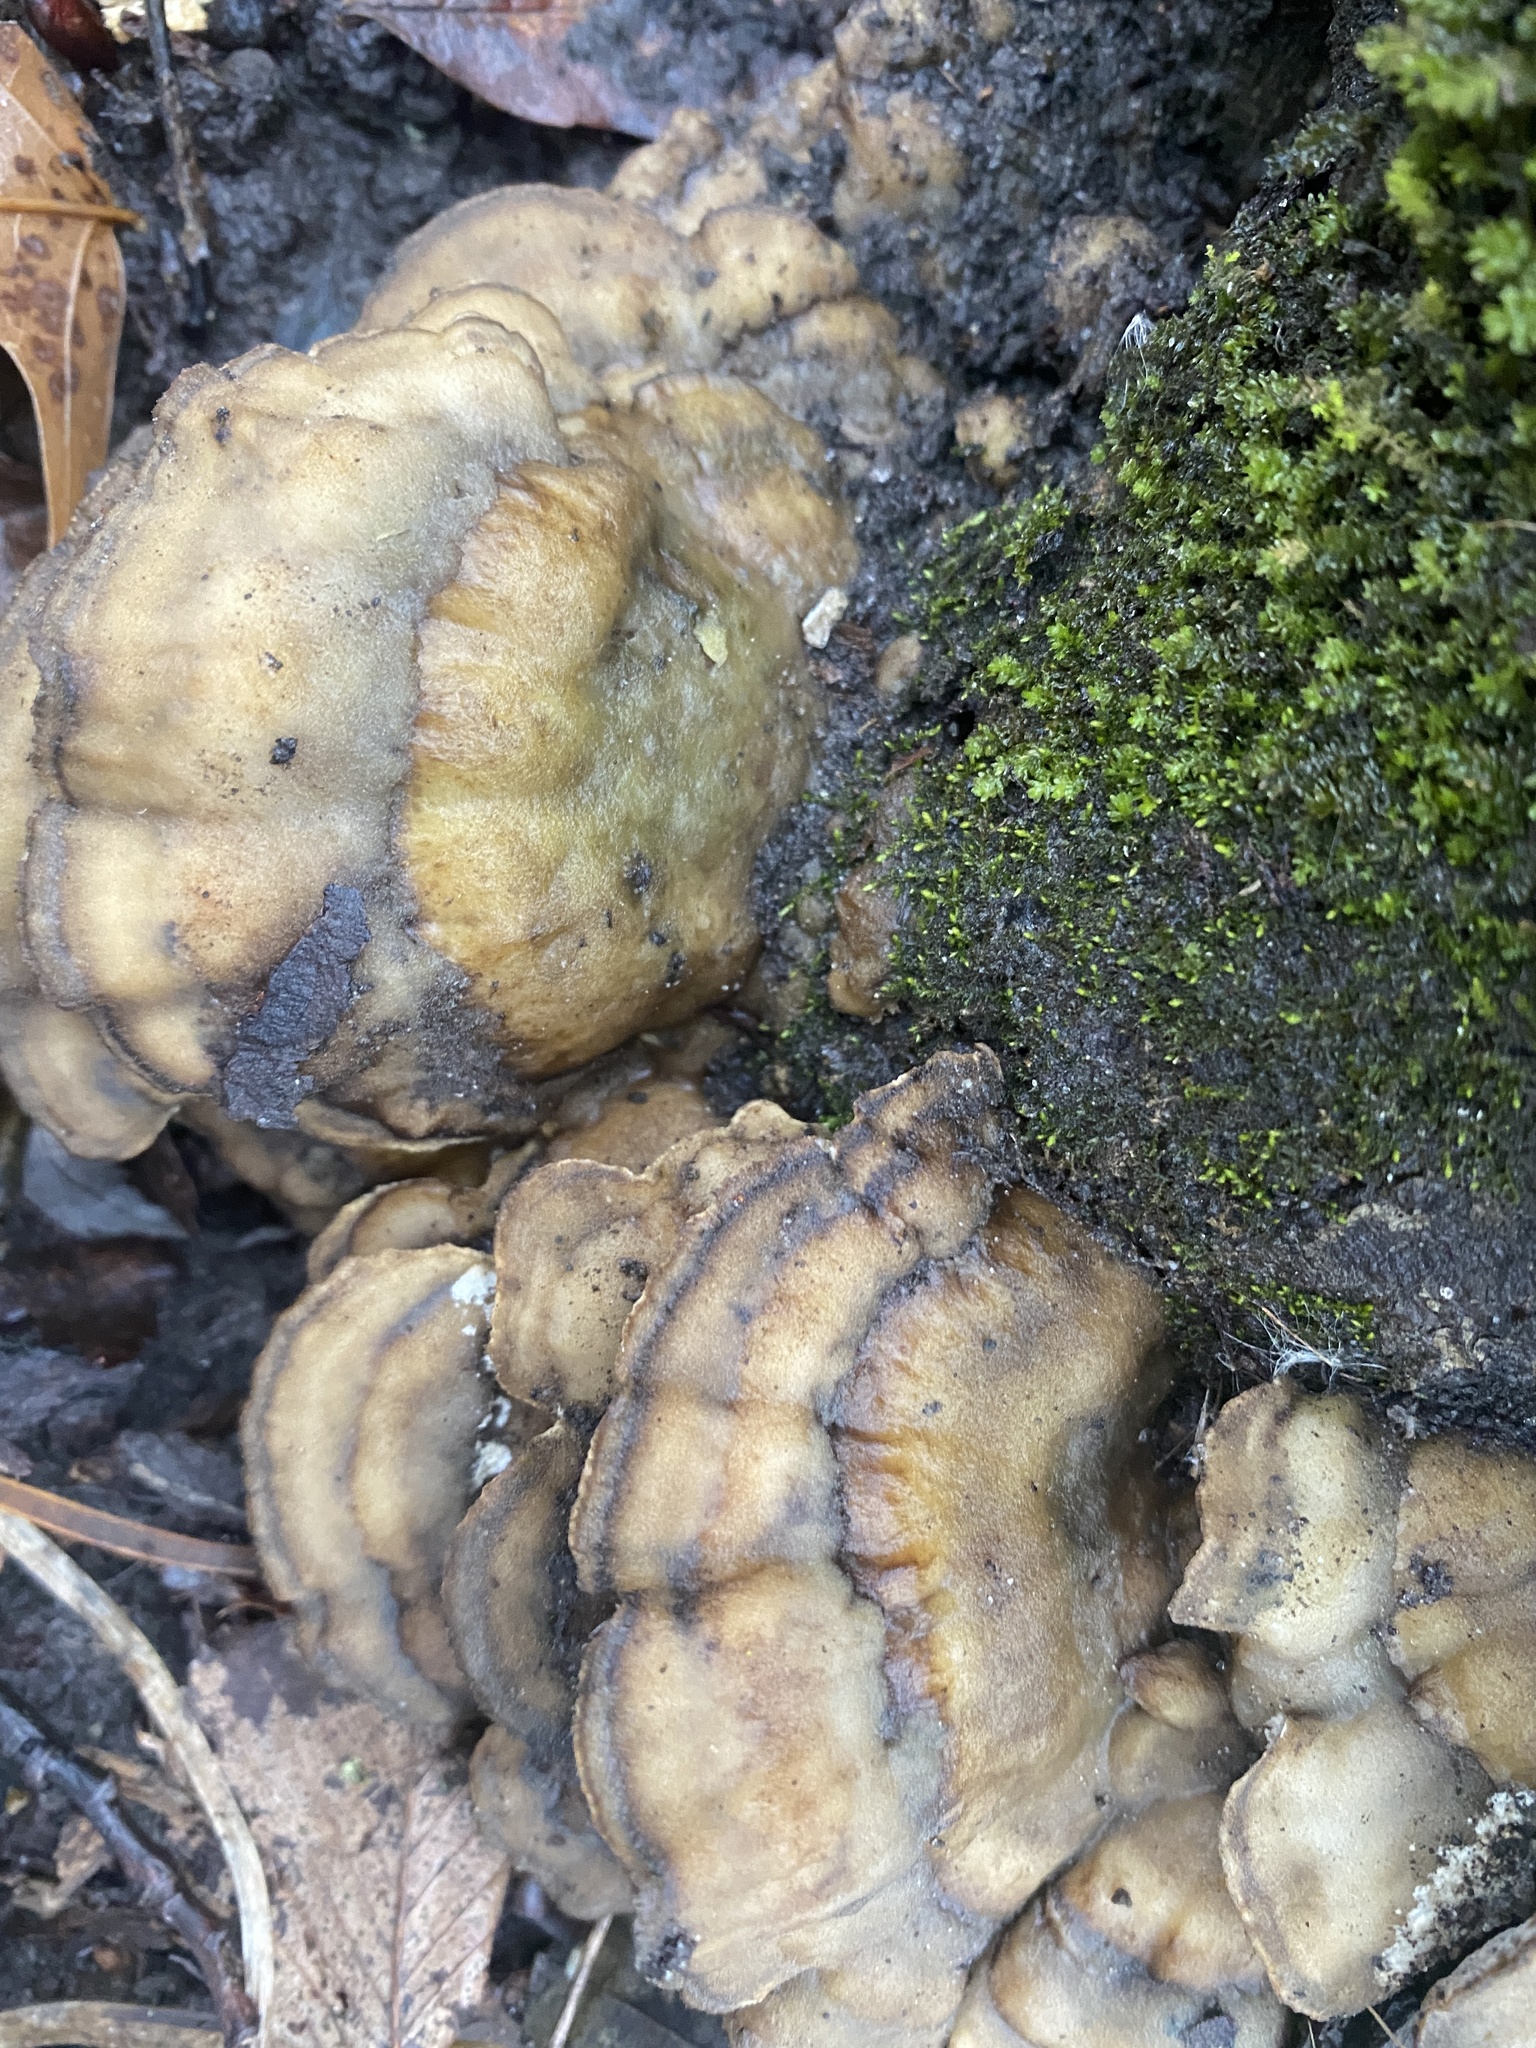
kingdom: Fungi
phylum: Basidiomycota
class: Agaricomycetes
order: Polyporales
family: Phanerochaetaceae
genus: Bjerkandera
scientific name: Bjerkandera adusta
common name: Smoky bracket
